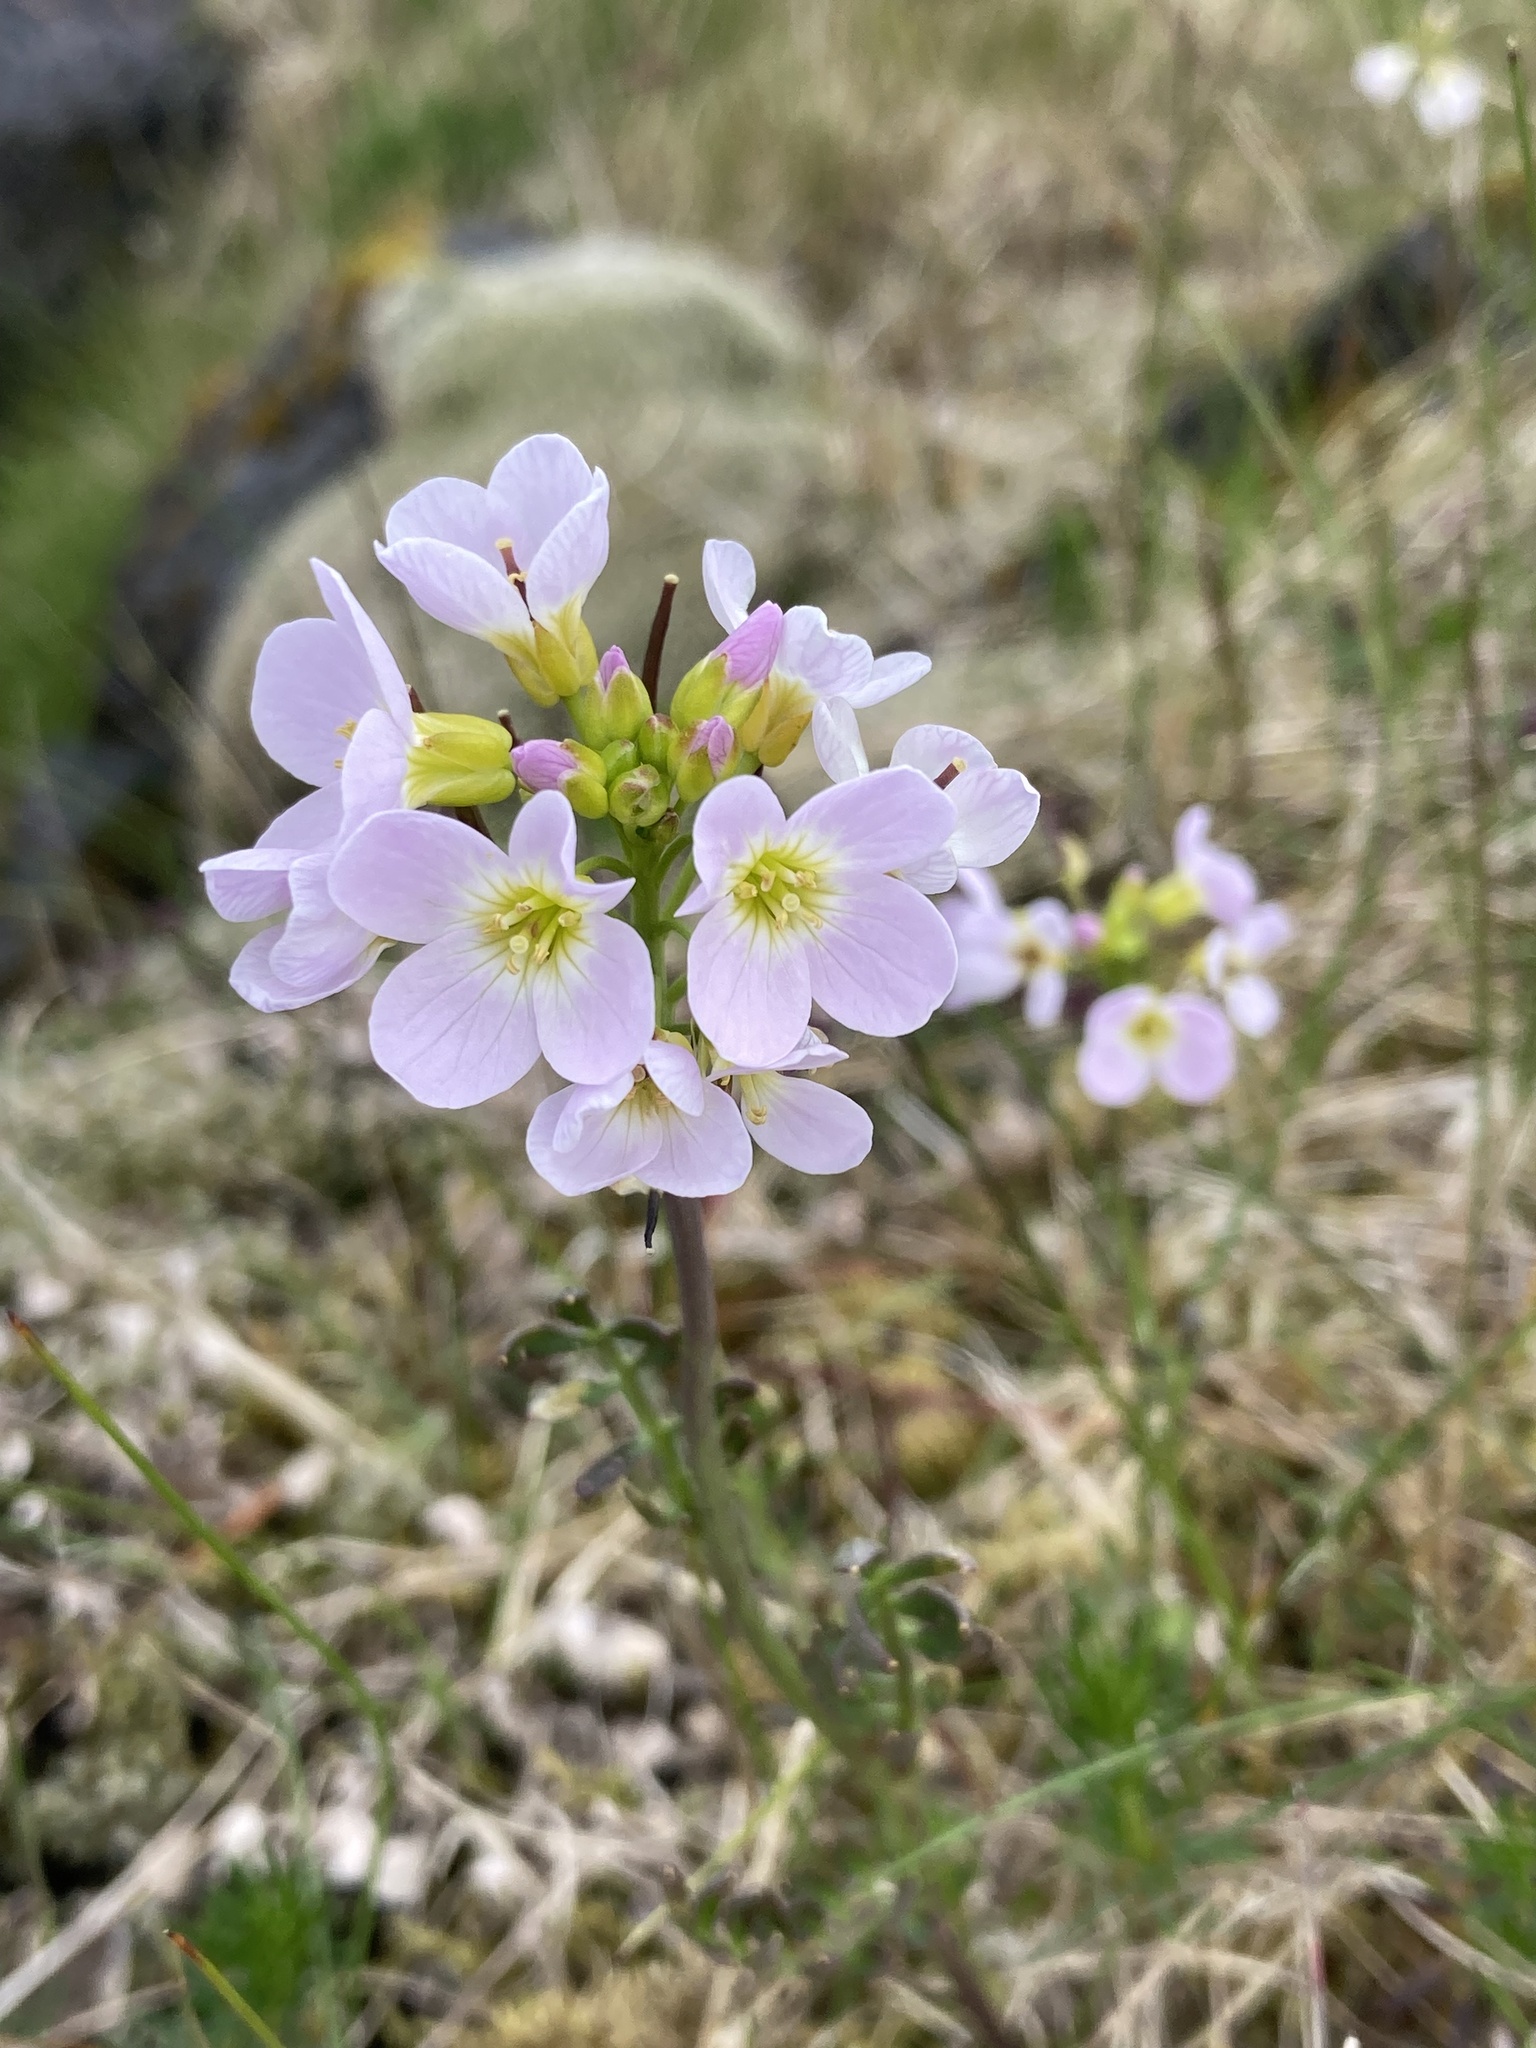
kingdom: Plantae
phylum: Tracheophyta
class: Magnoliopsida
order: Brassicales
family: Brassicaceae
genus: Cardamine
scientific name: Cardamine nymanii
